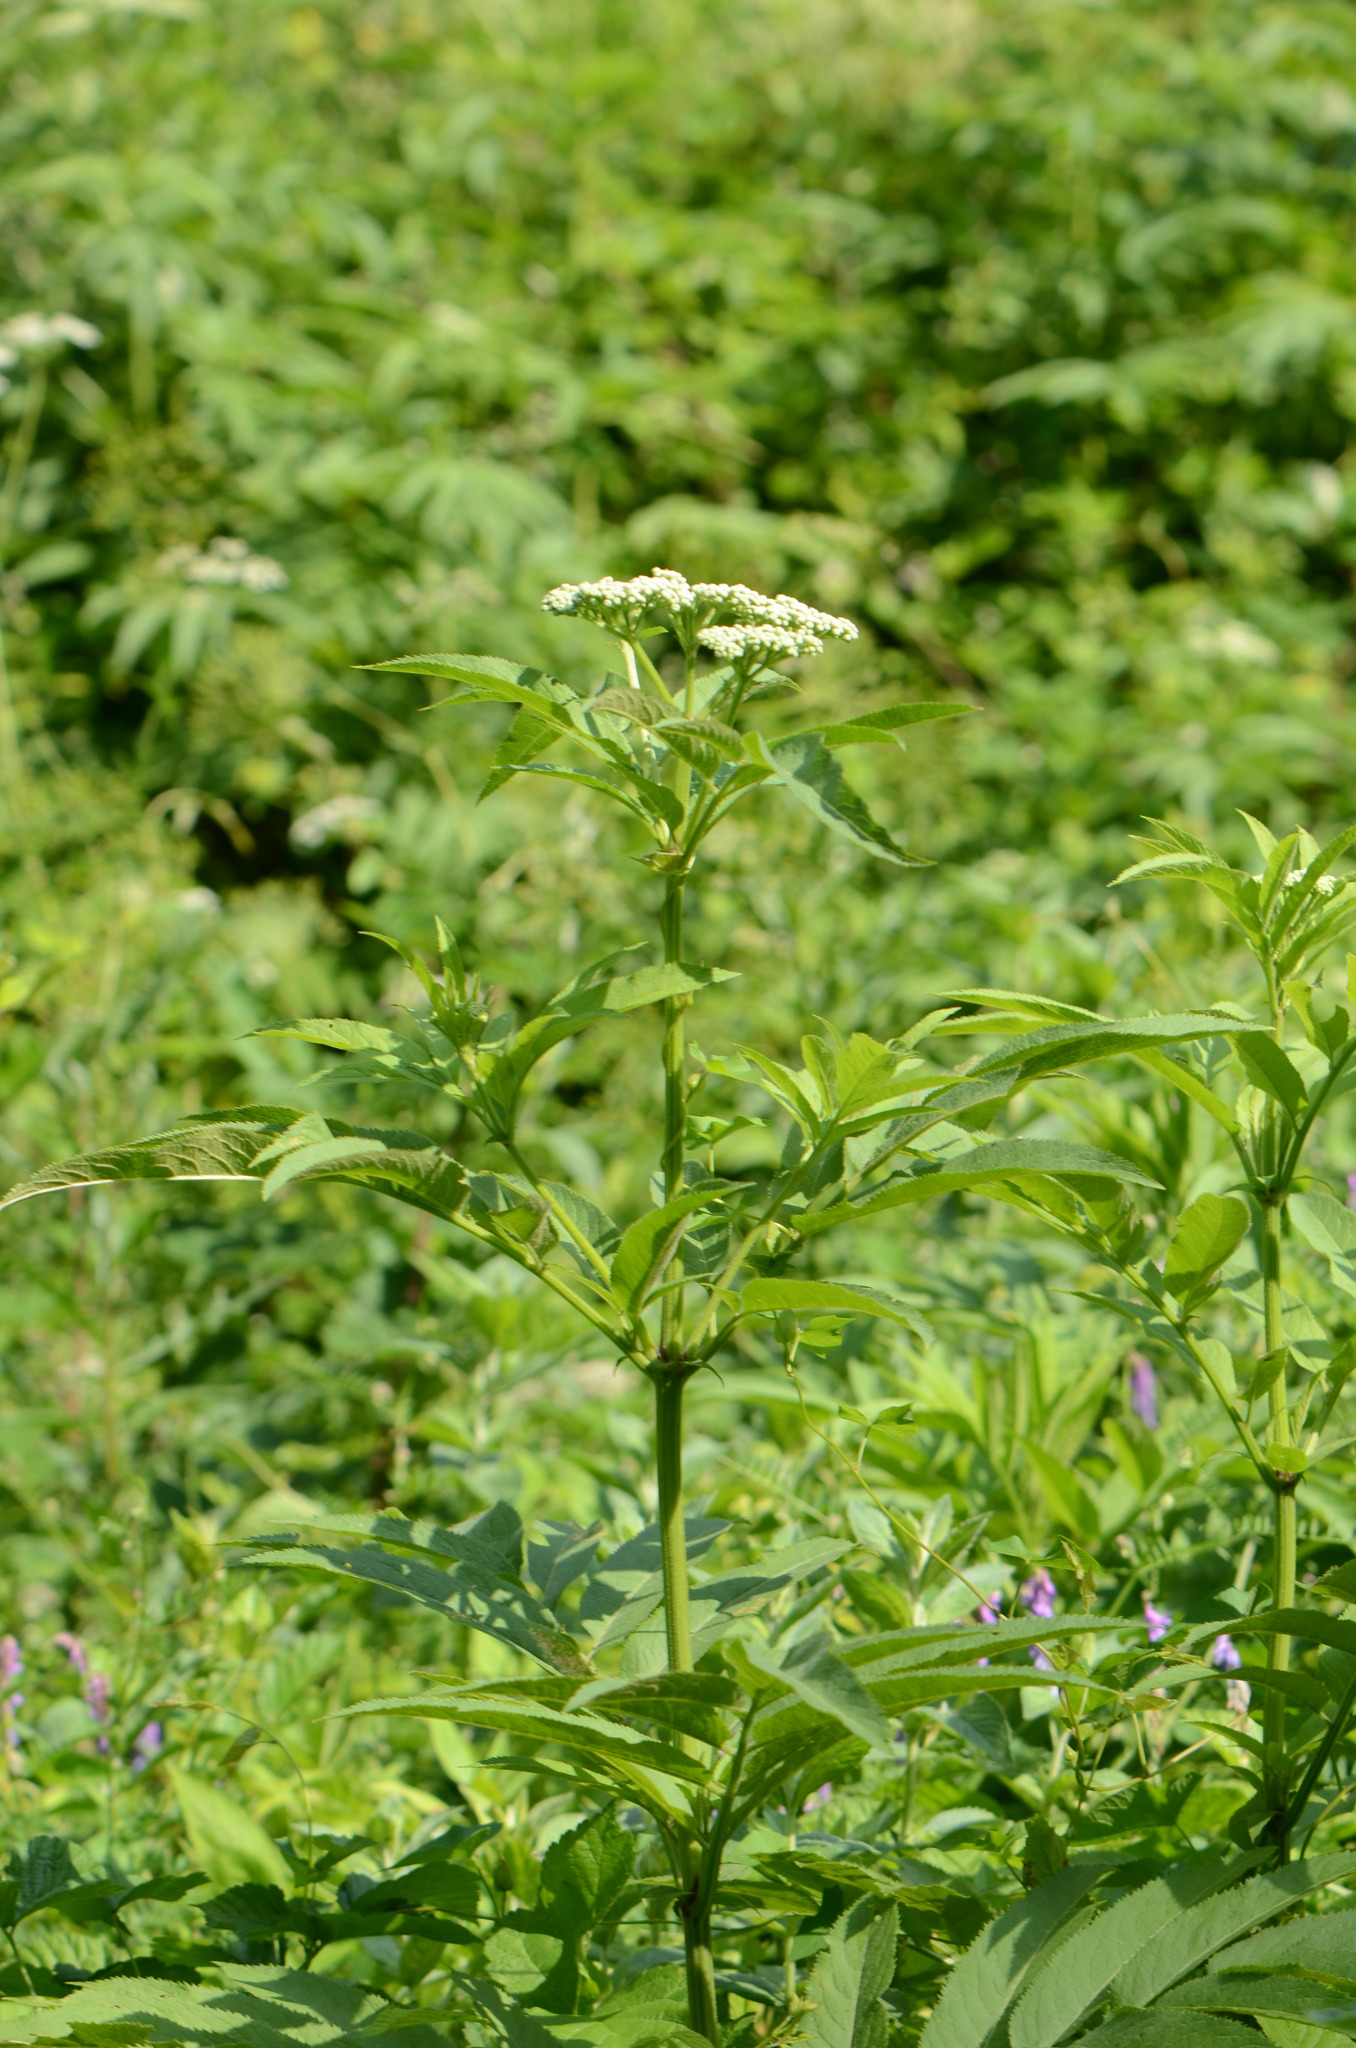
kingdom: Plantae
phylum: Tracheophyta
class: Magnoliopsida
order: Dipsacales
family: Viburnaceae
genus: Sambucus
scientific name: Sambucus ebulus
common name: Dwarf elder
